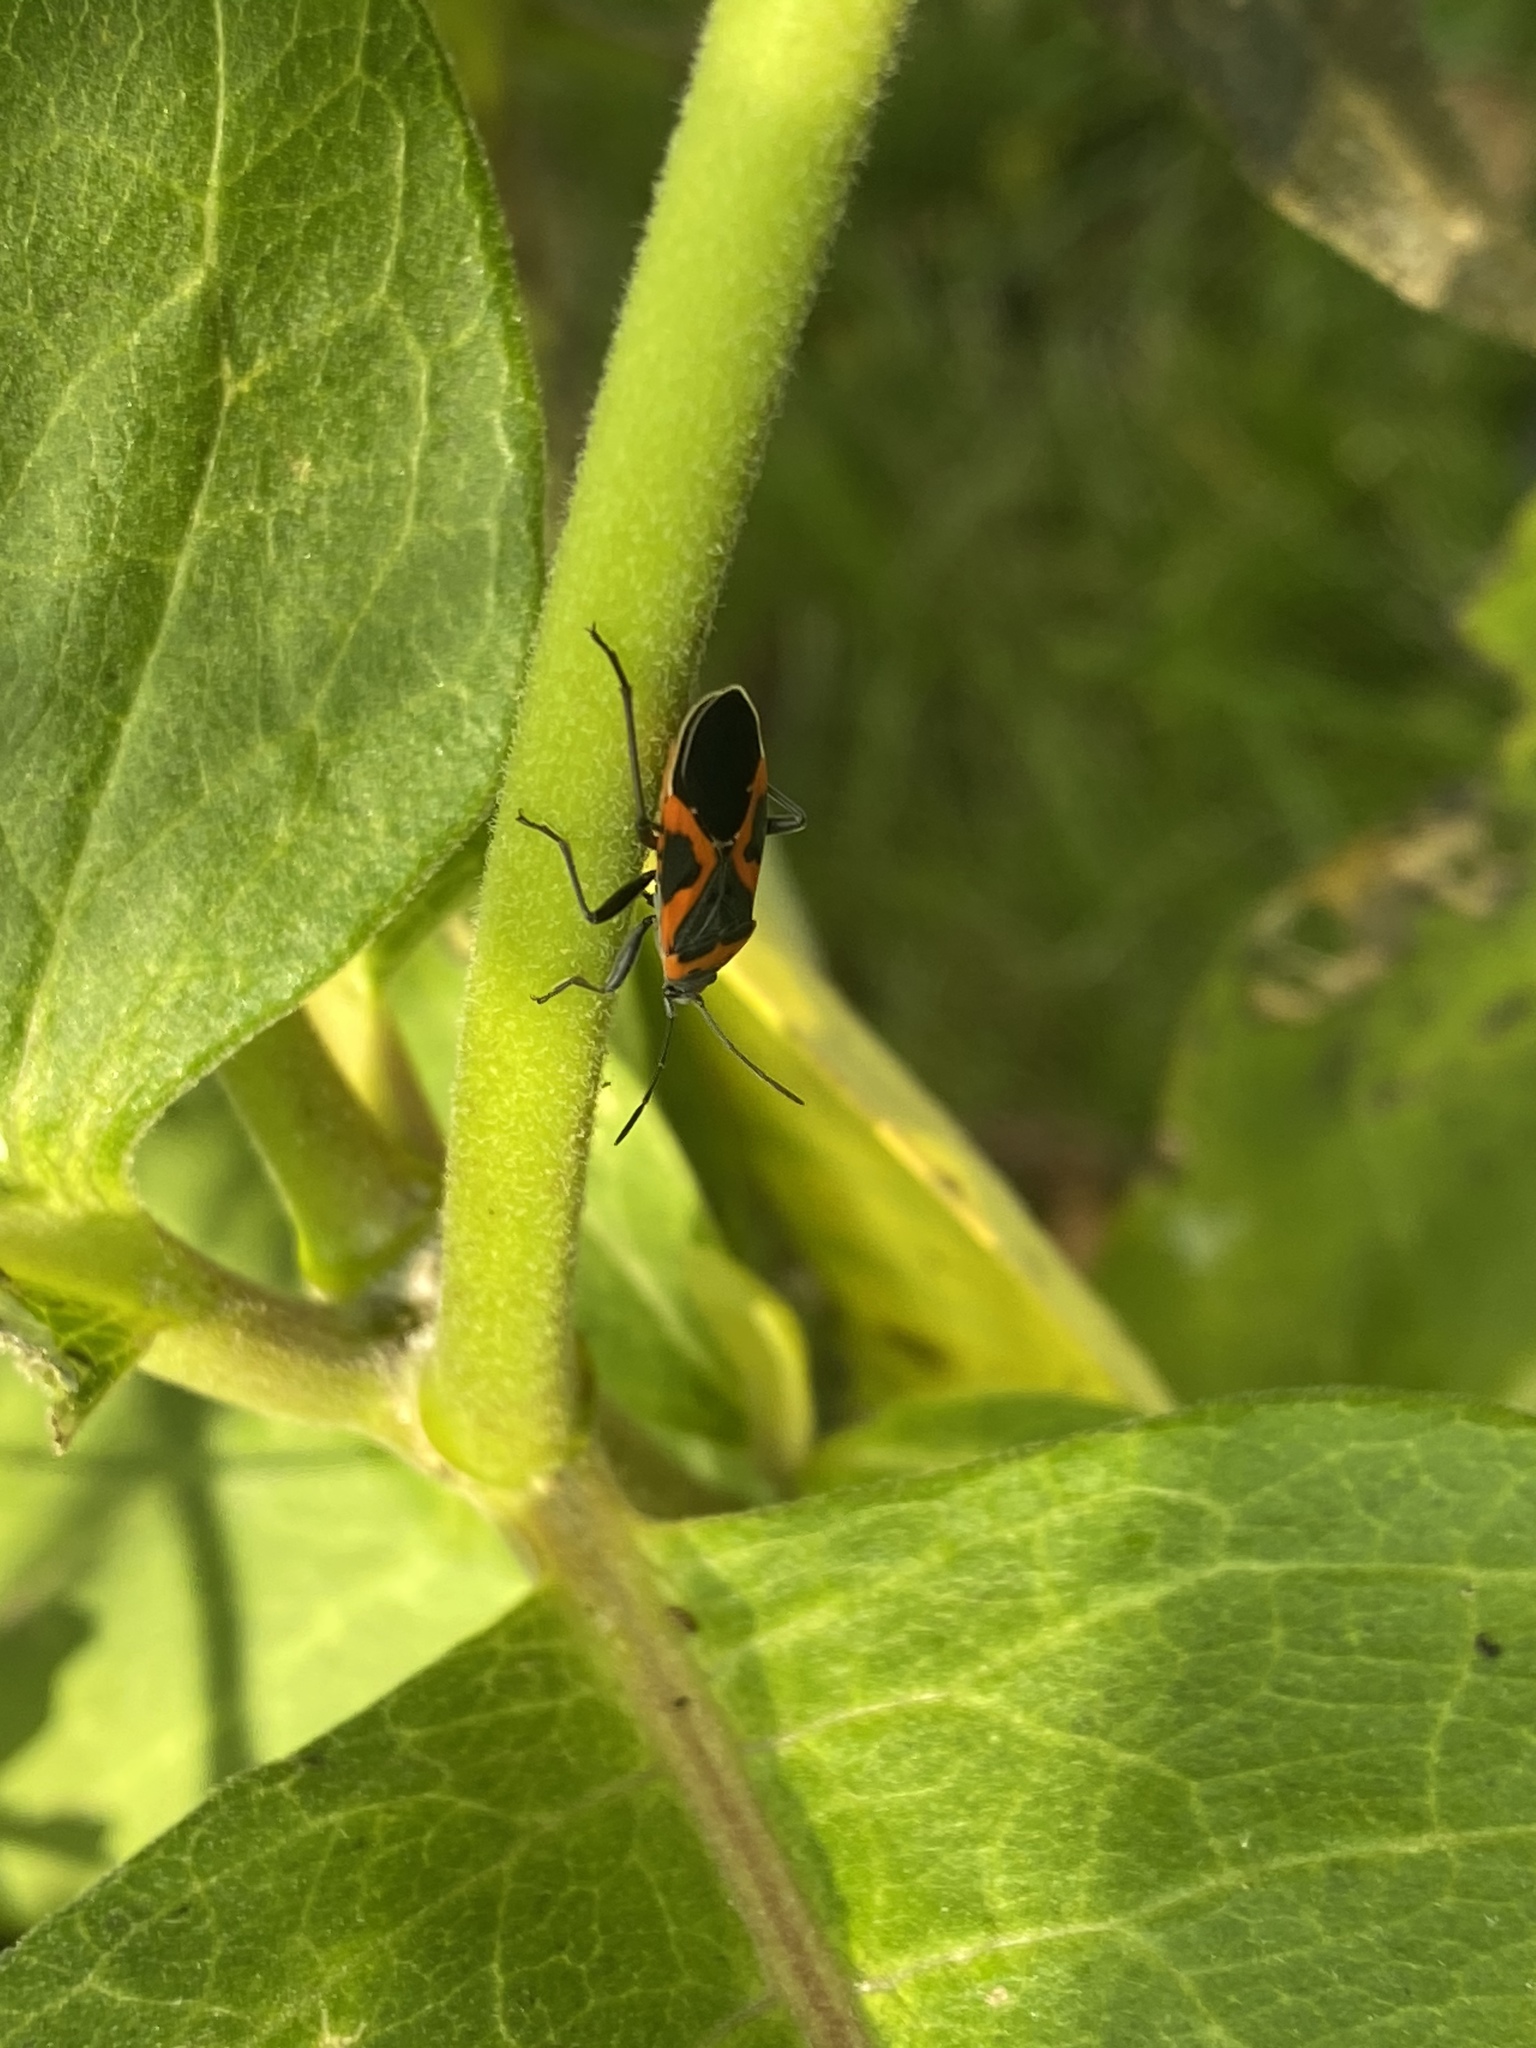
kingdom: Animalia
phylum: Arthropoda
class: Insecta
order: Hemiptera
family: Lygaeidae
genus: Lygaeus
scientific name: Lygaeus kalmii
